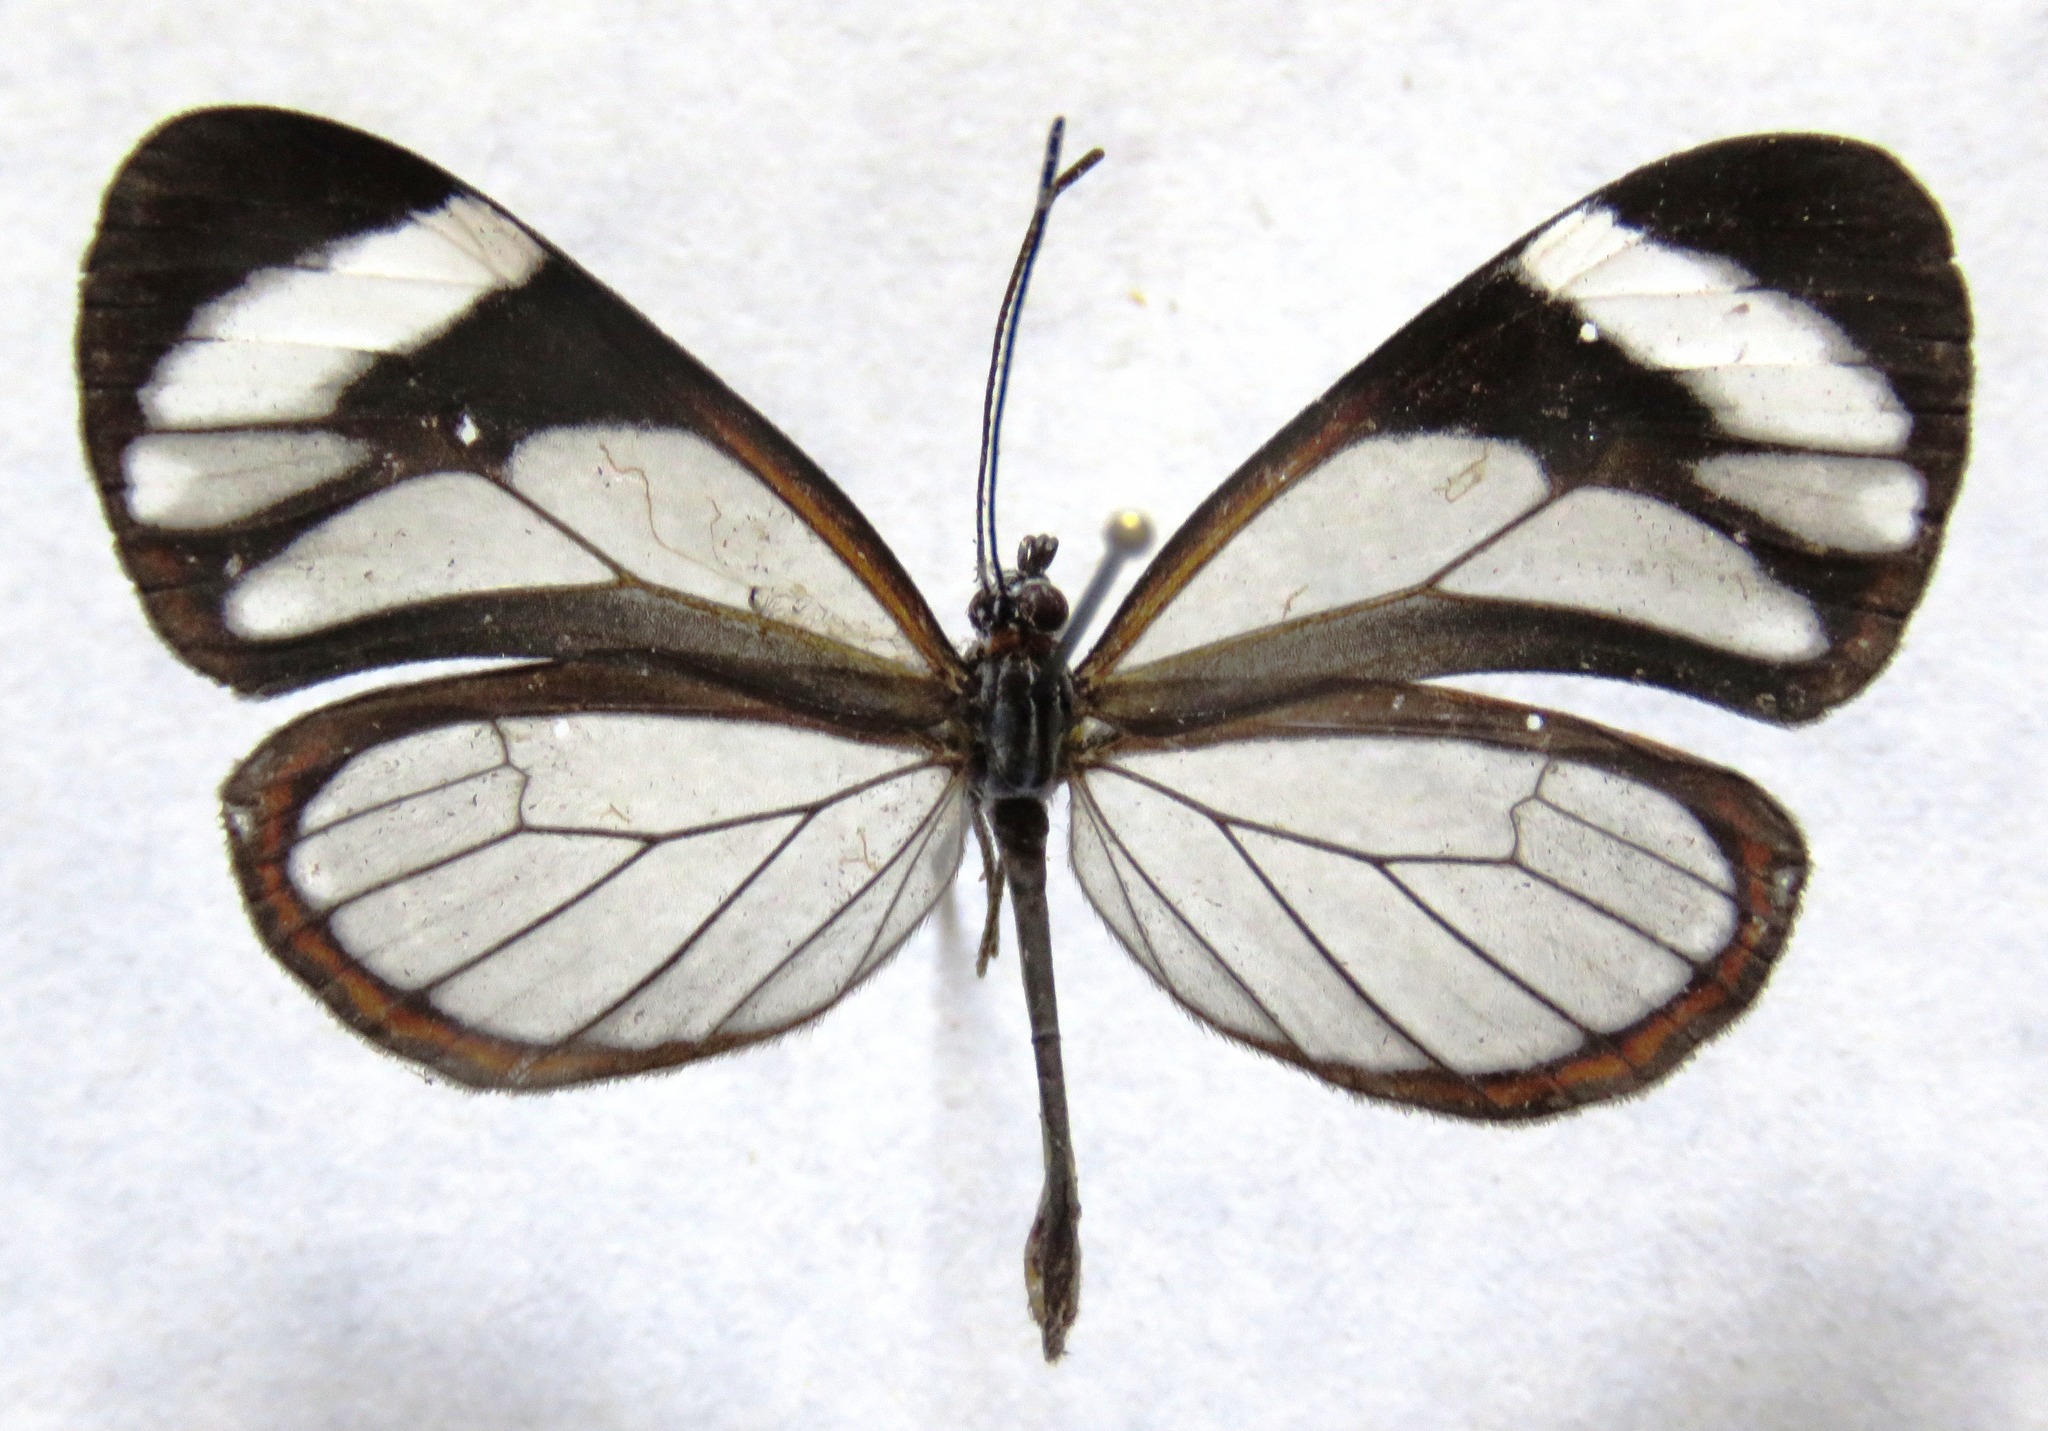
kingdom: Animalia
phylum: Arthropoda
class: Insecta
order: Lepidoptera
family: Nymphalidae
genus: Ithomia
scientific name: Ithomia patilla
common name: Patilla clearwing
